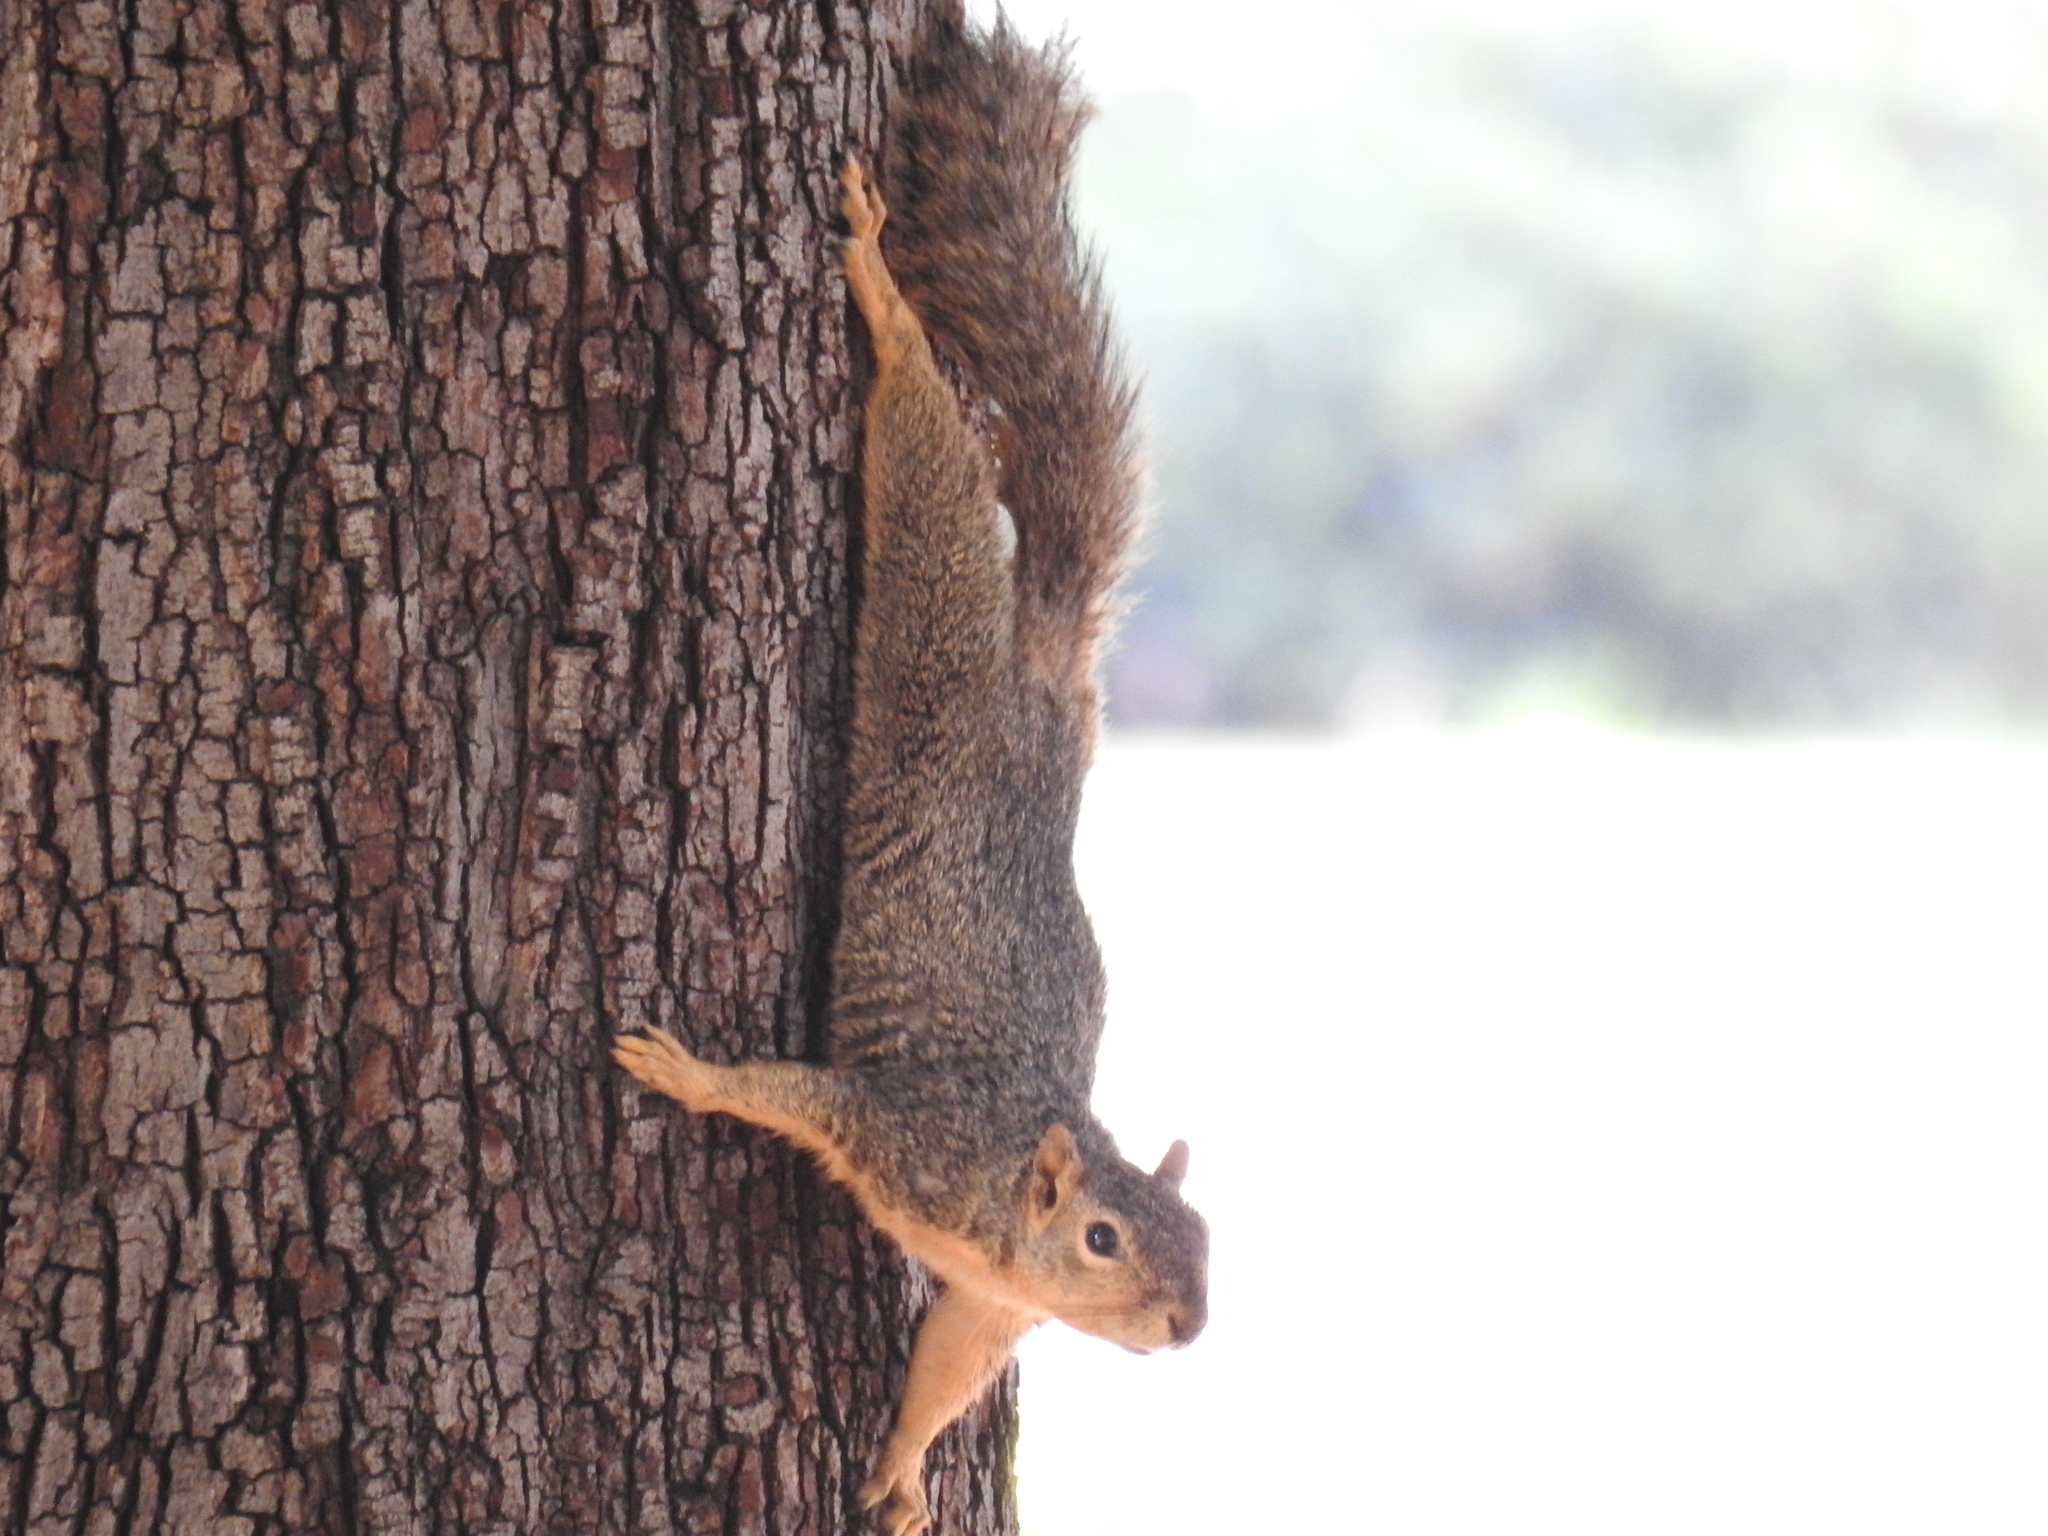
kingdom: Animalia
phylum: Chordata
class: Mammalia
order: Rodentia
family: Sciuridae
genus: Sciurus
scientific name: Sciurus niger
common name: Fox squirrel
